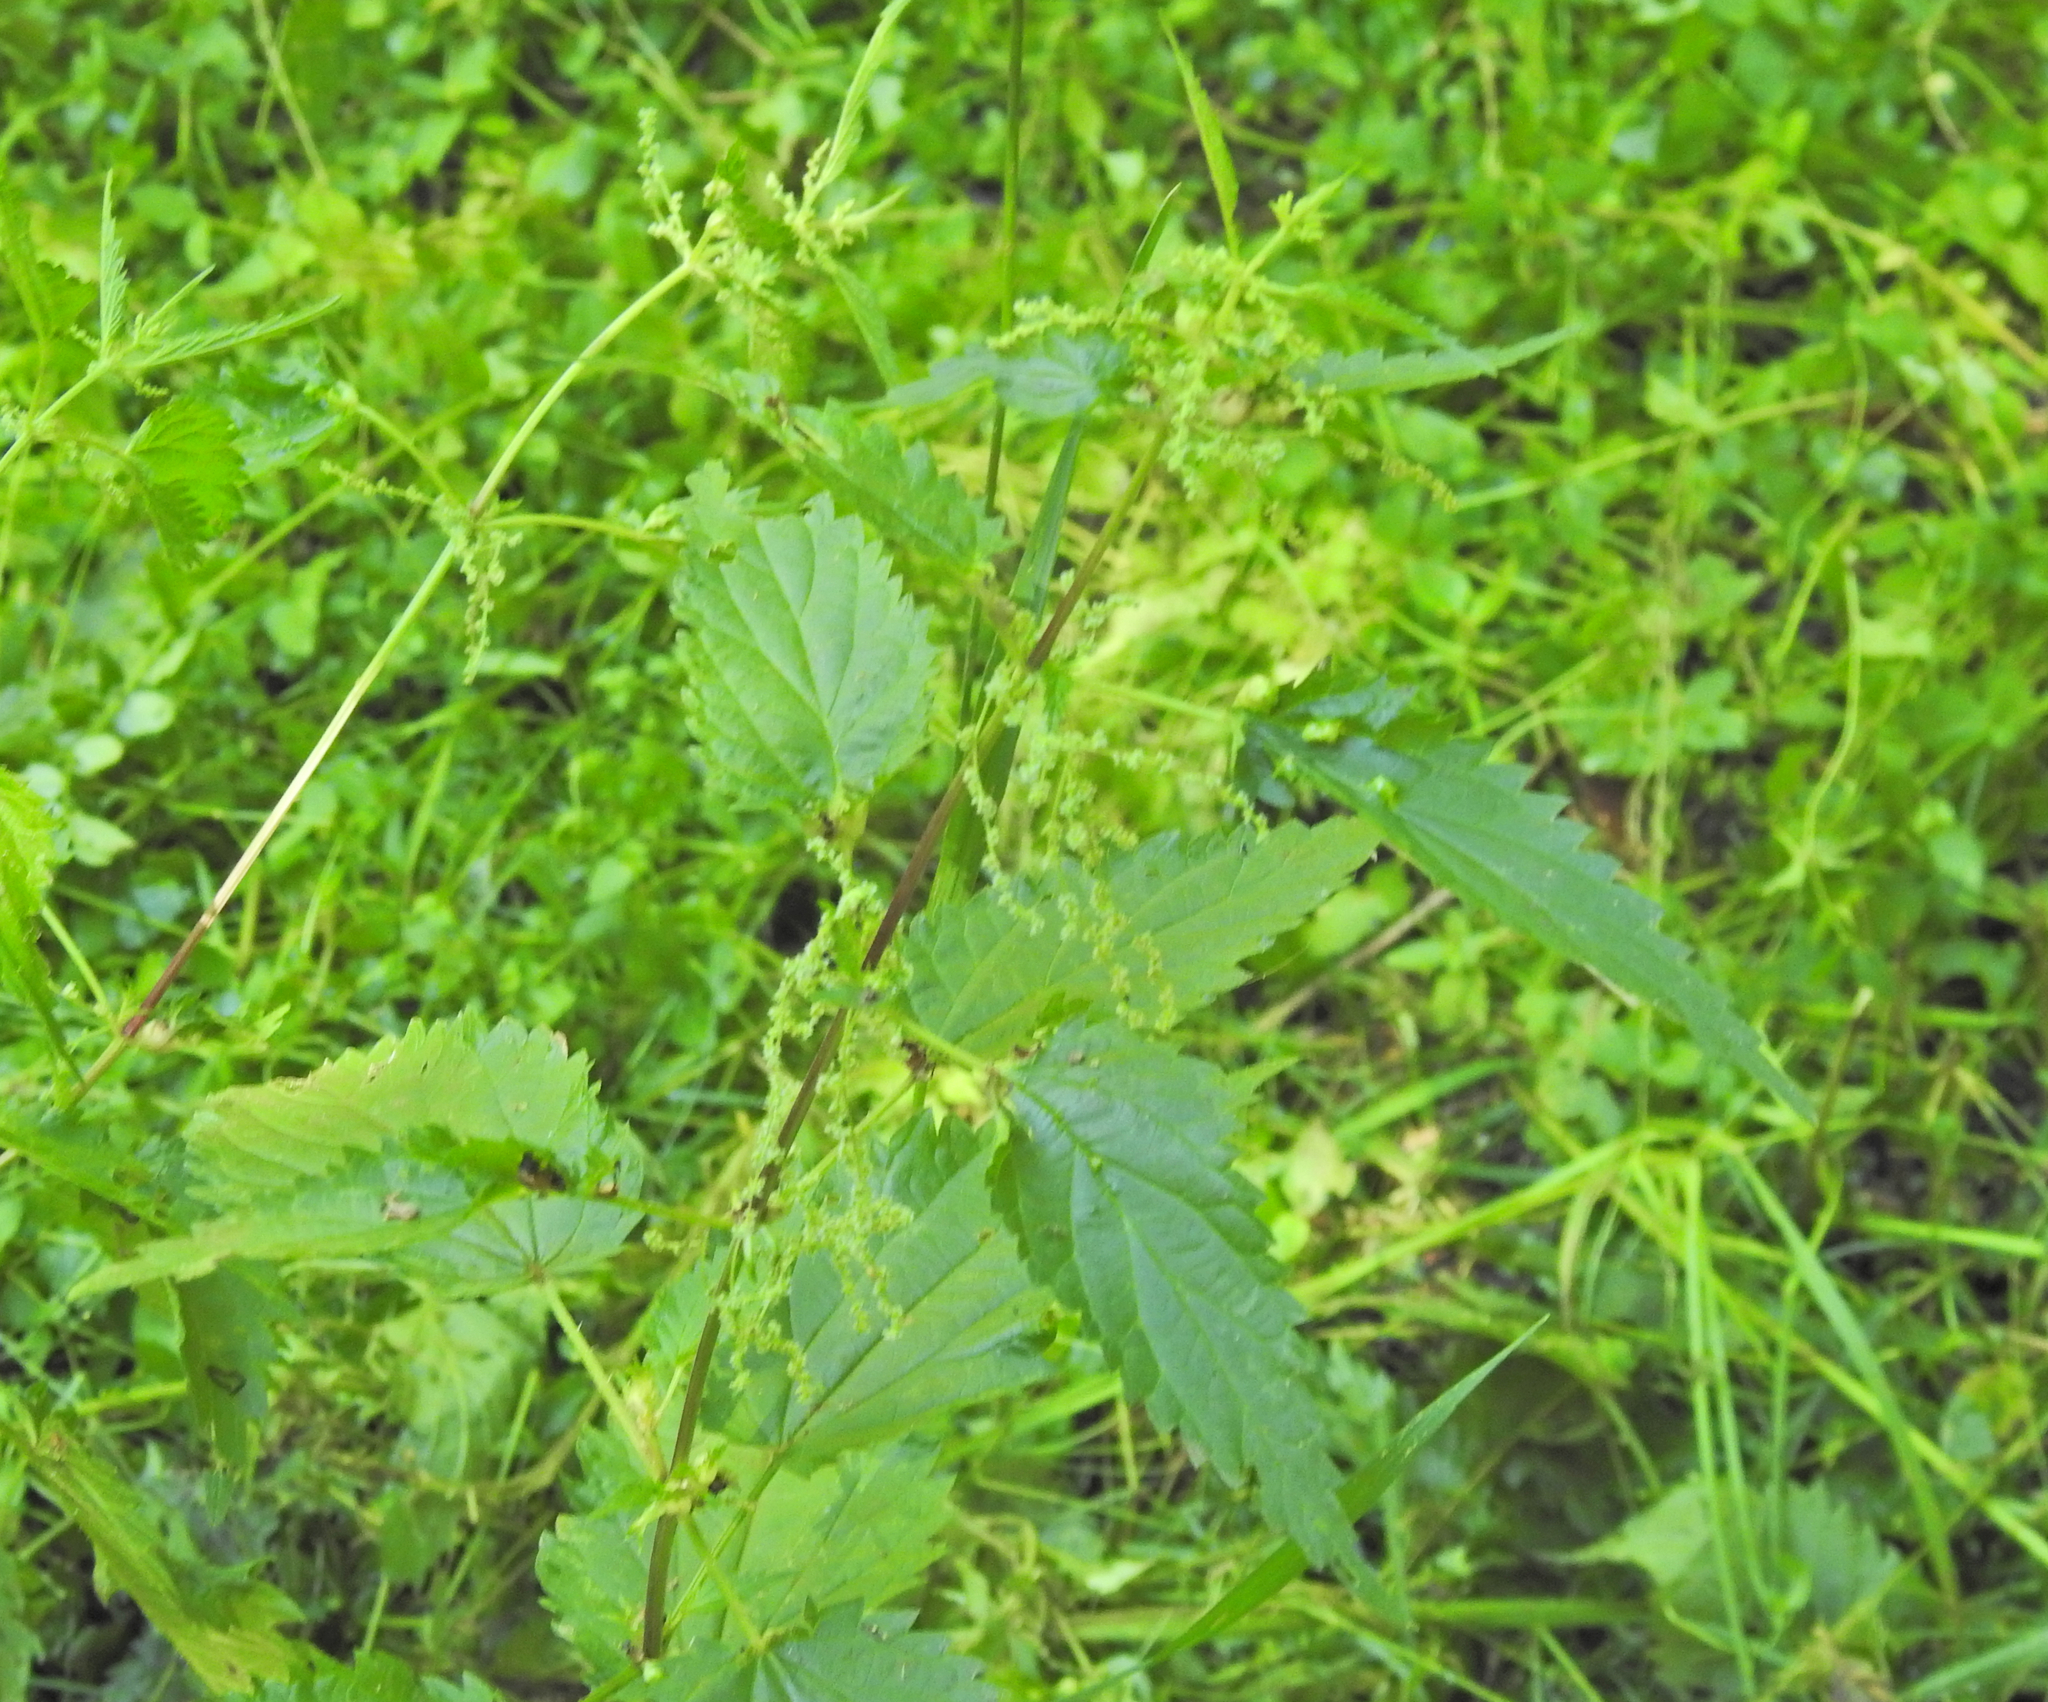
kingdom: Plantae
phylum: Tracheophyta
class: Magnoliopsida
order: Rosales
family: Urticaceae
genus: Urtica
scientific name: Urtica dioica
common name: Common nettle
